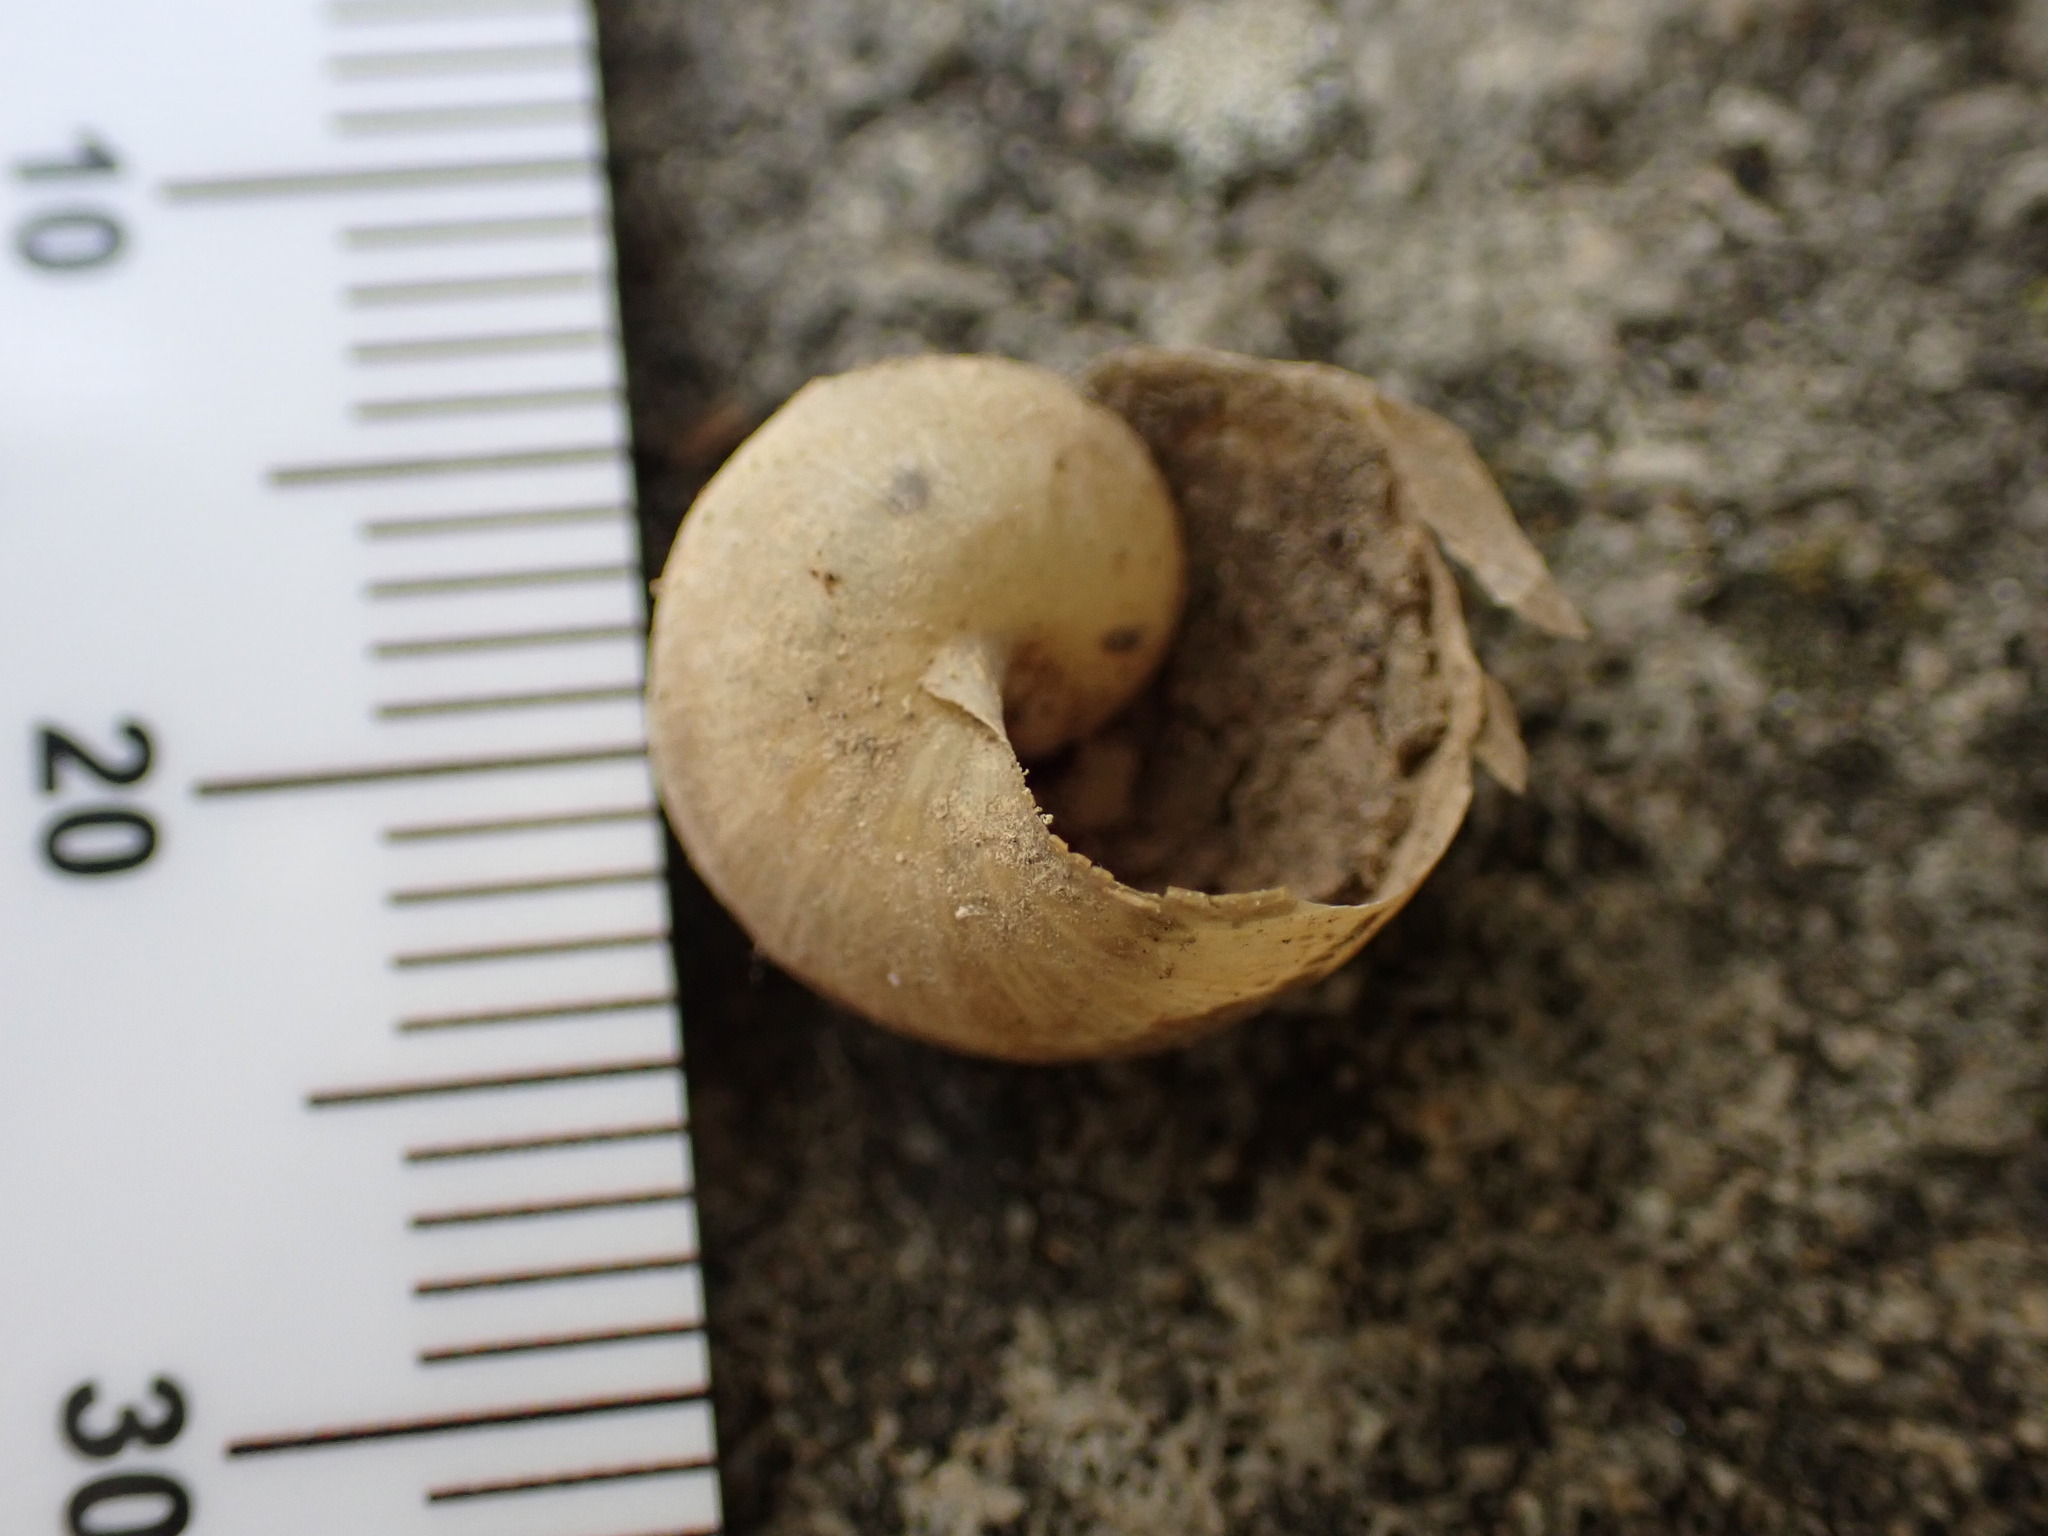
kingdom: Animalia
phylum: Mollusca
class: Gastropoda
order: Stylommatophora
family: Helicidae
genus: Cornu
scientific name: Cornu aspersum
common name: Brown garden snail
